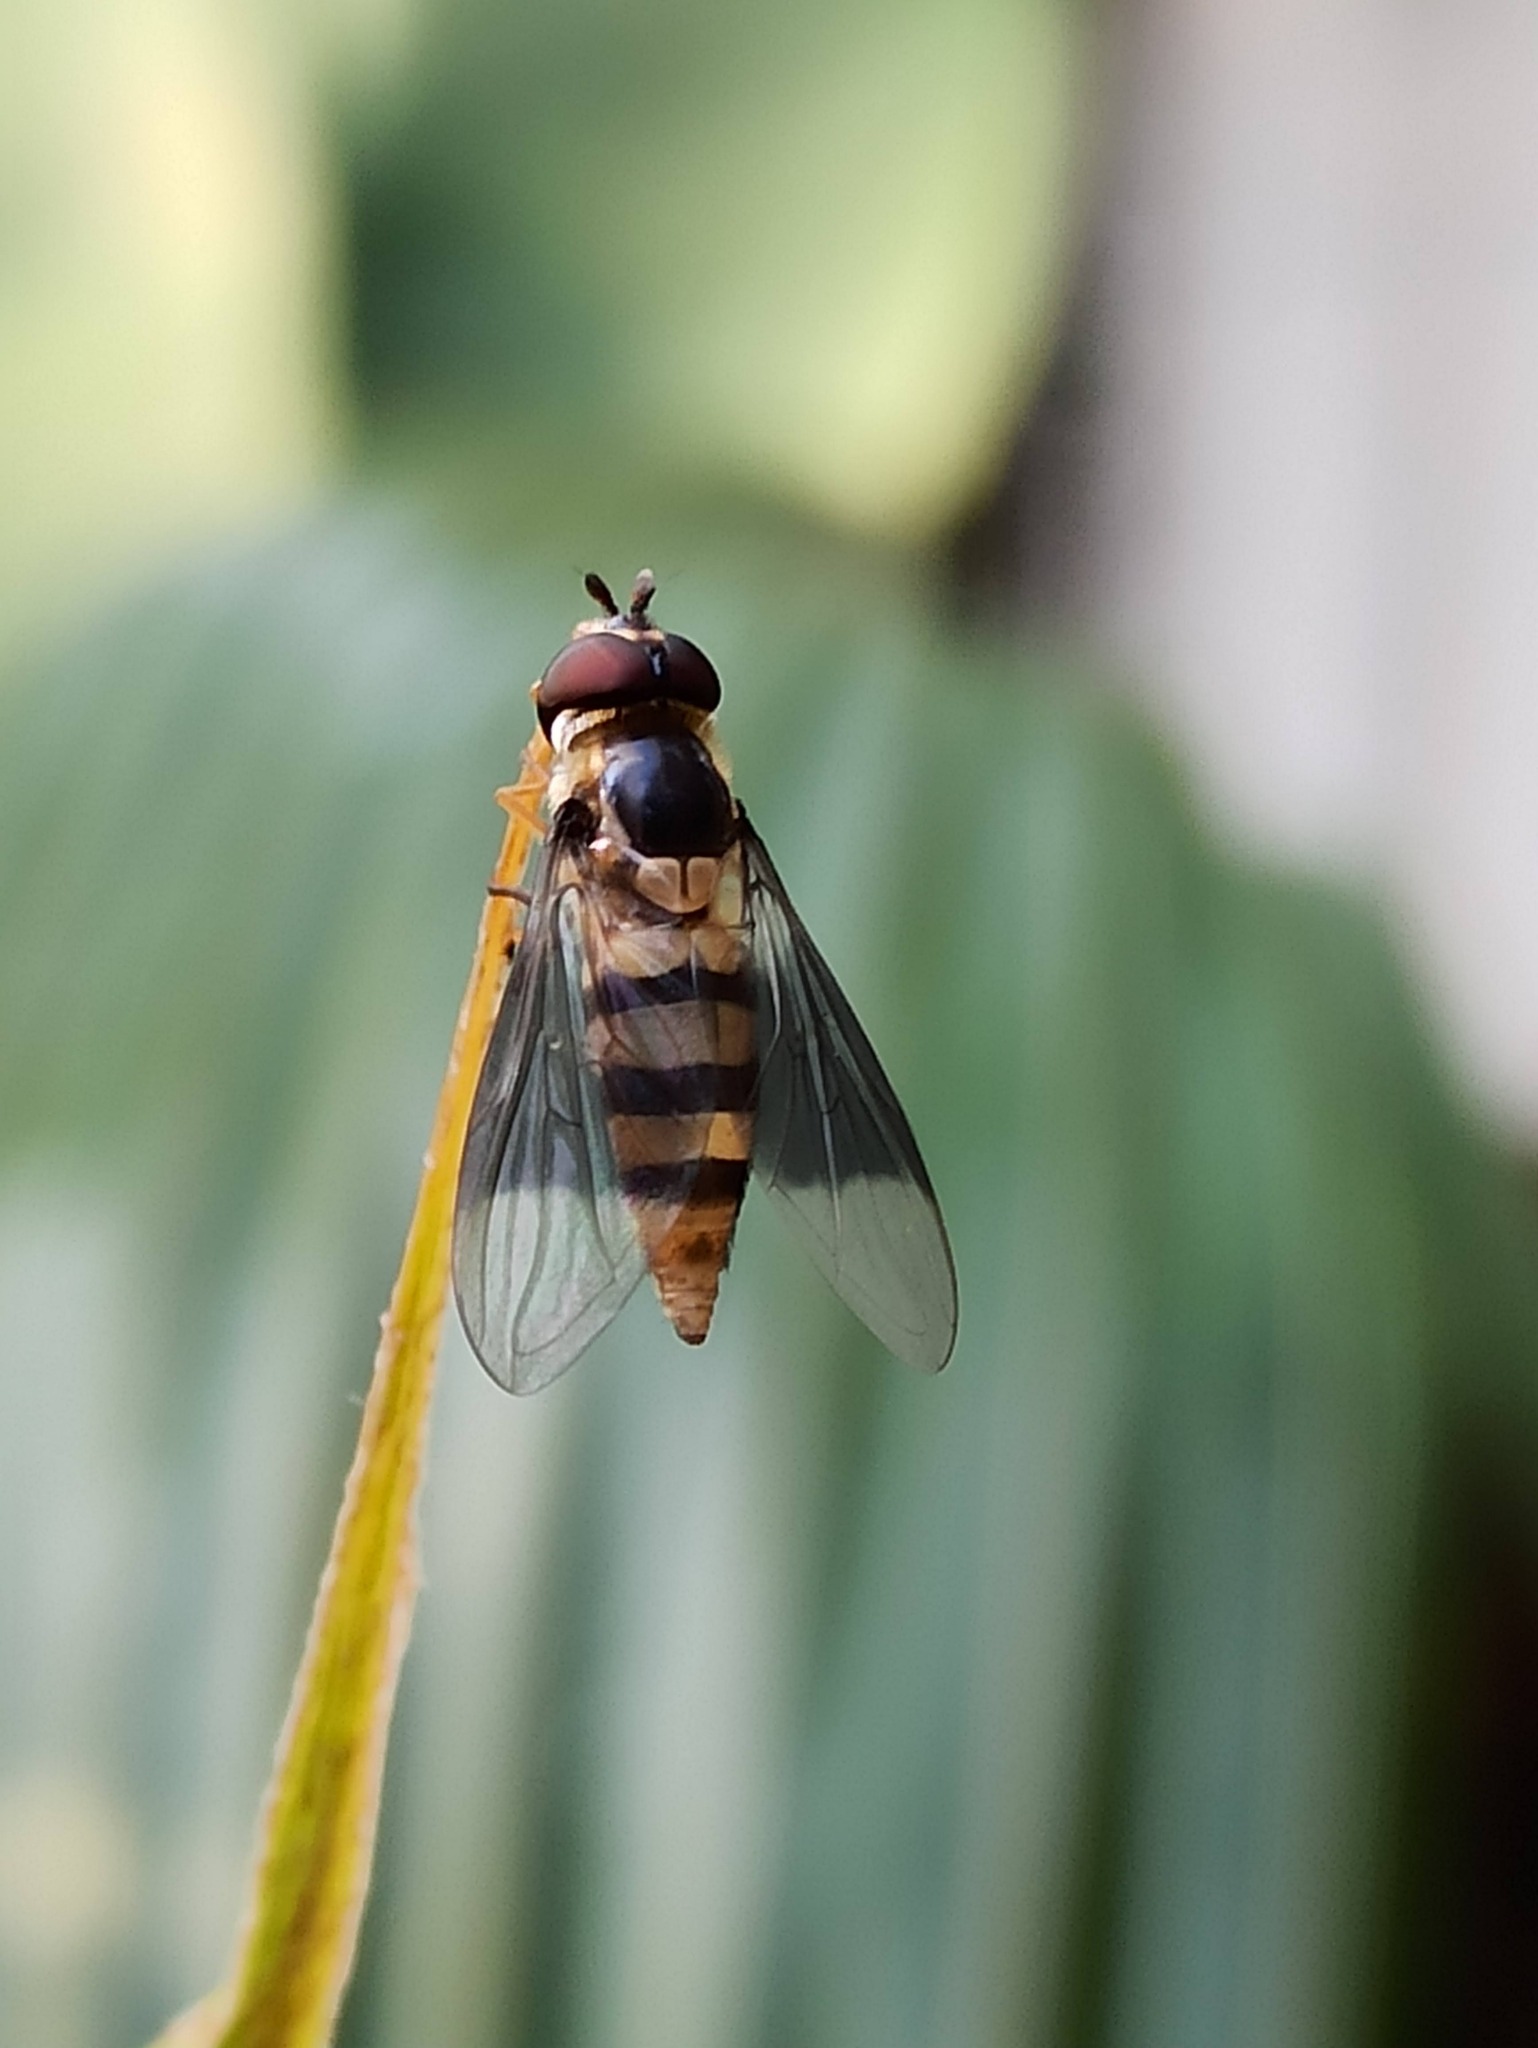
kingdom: Animalia
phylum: Arthropoda
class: Insecta
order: Diptera
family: Syrphidae
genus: Dideopsis
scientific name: Dideopsis aegrota
